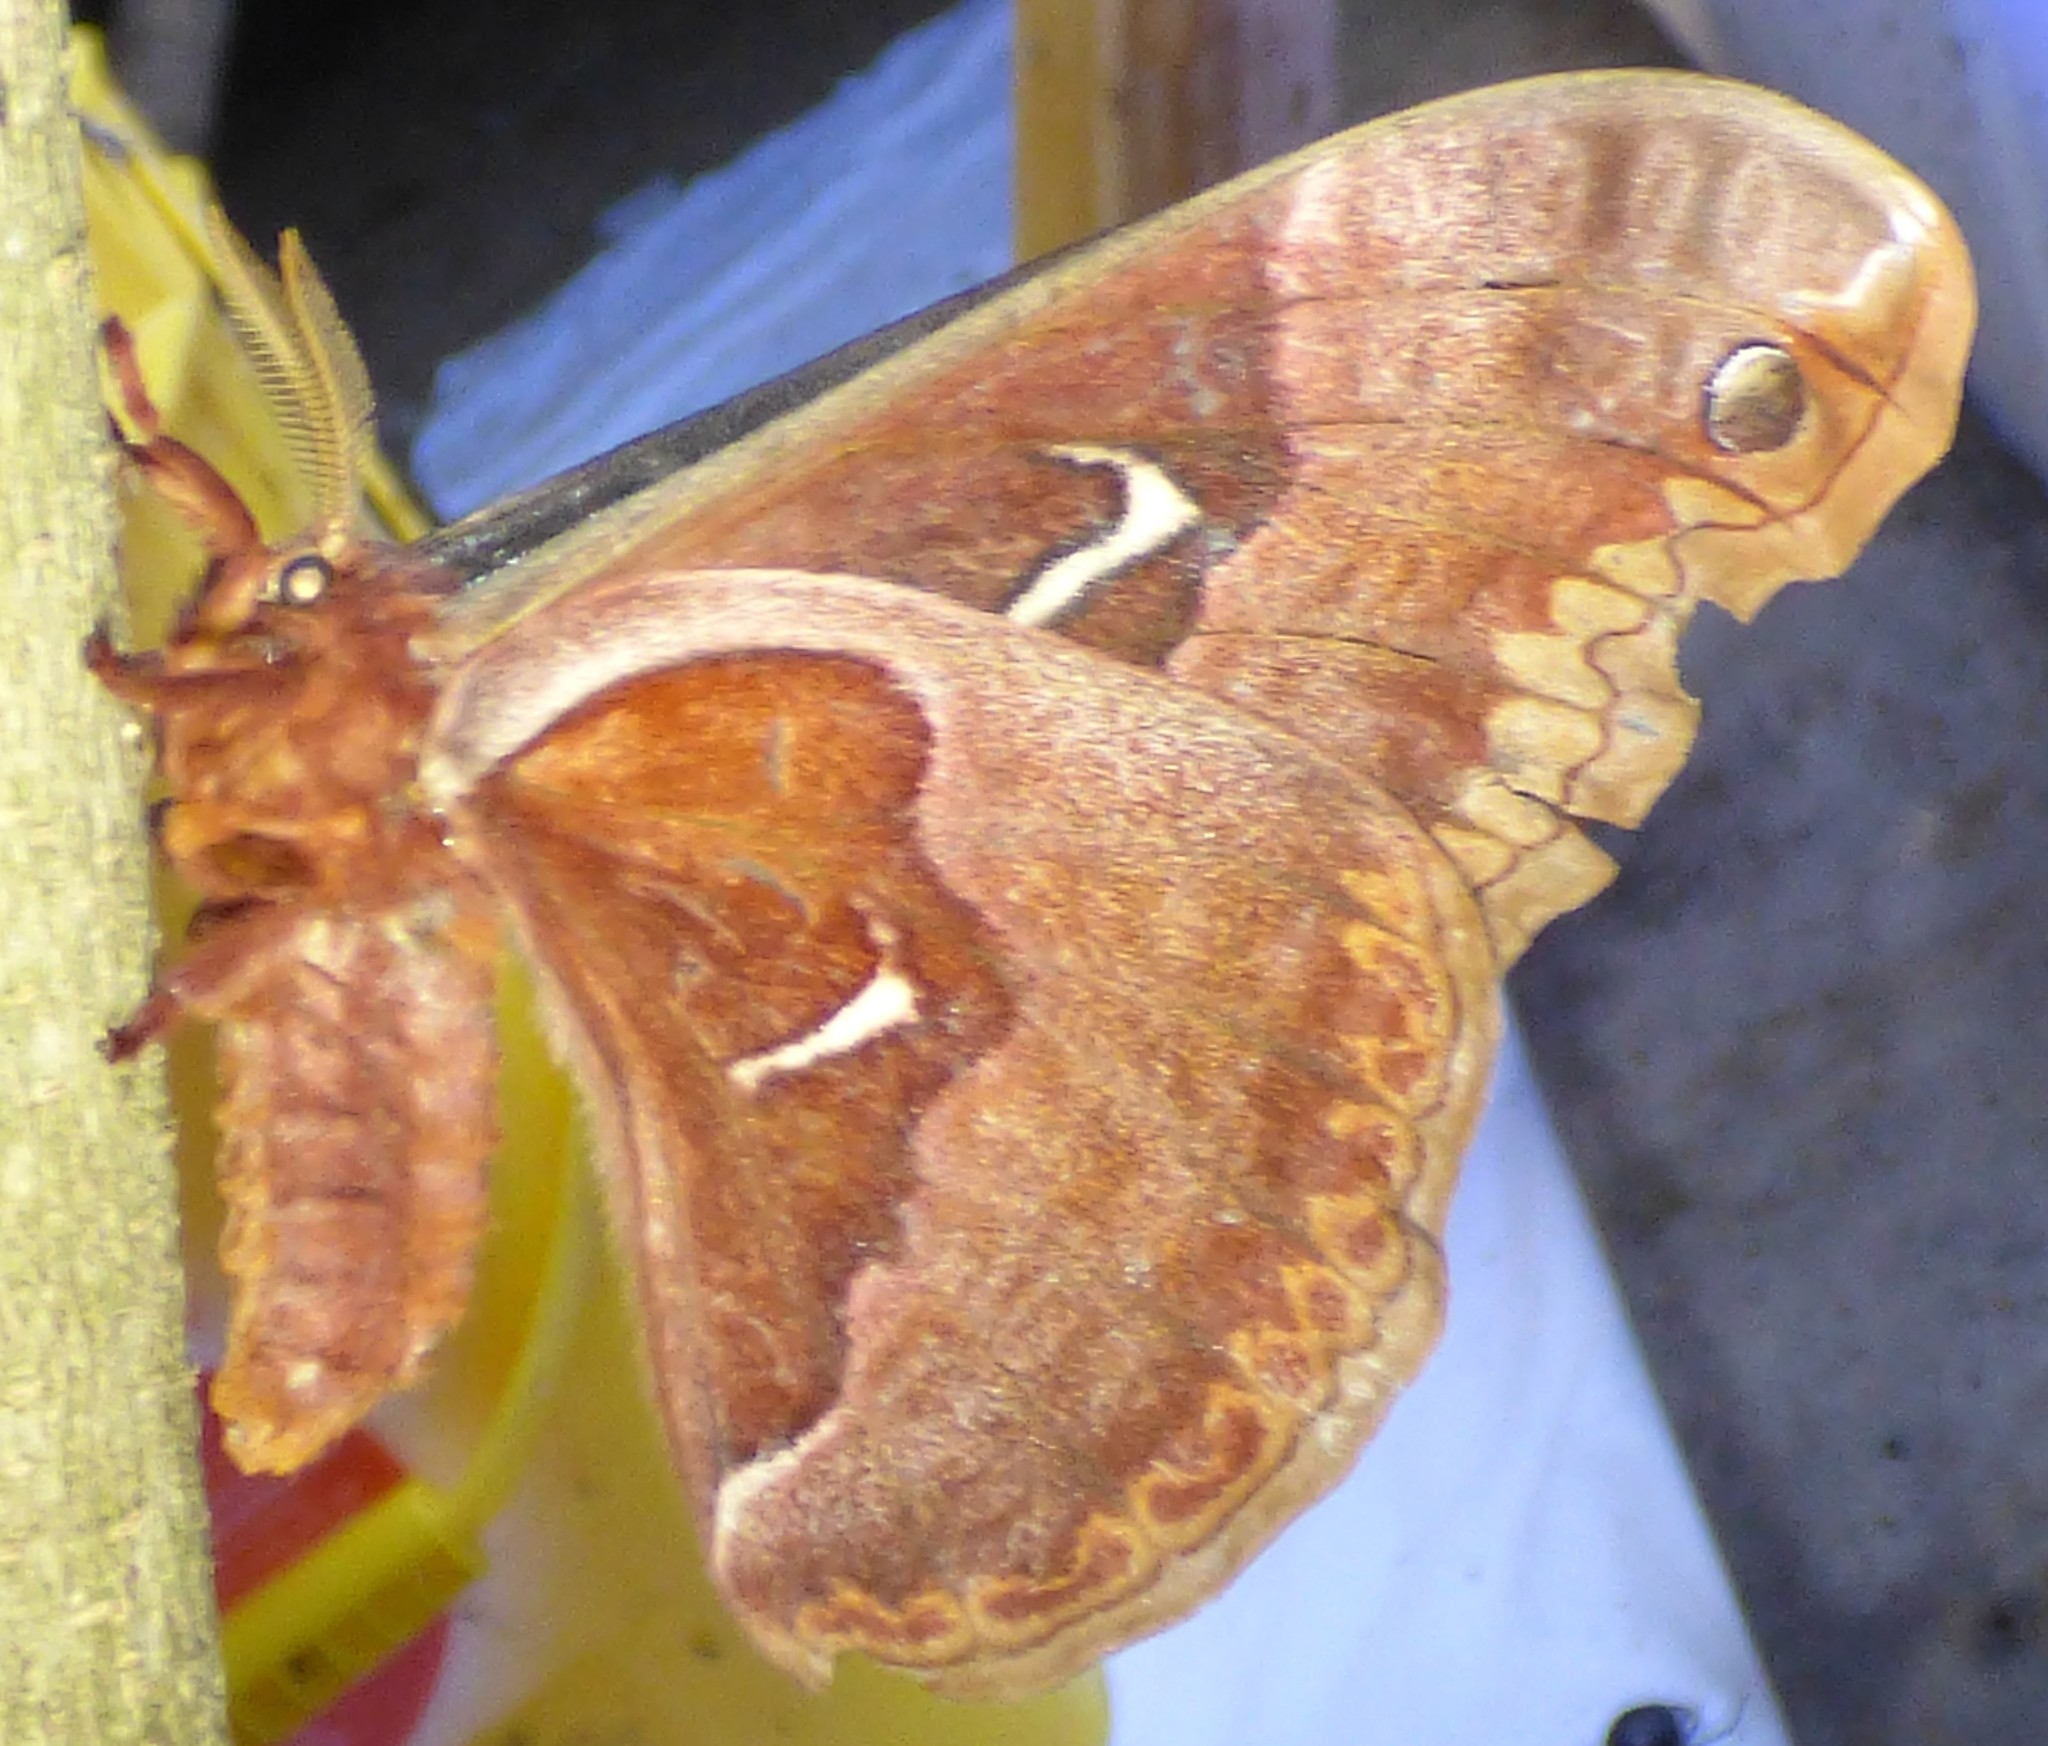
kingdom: Animalia
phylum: Arthropoda
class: Insecta
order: Lepidoptera
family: Saturniidae
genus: Callosamia
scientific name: Callosamia angulifera
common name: Tulip tree silkmoth
